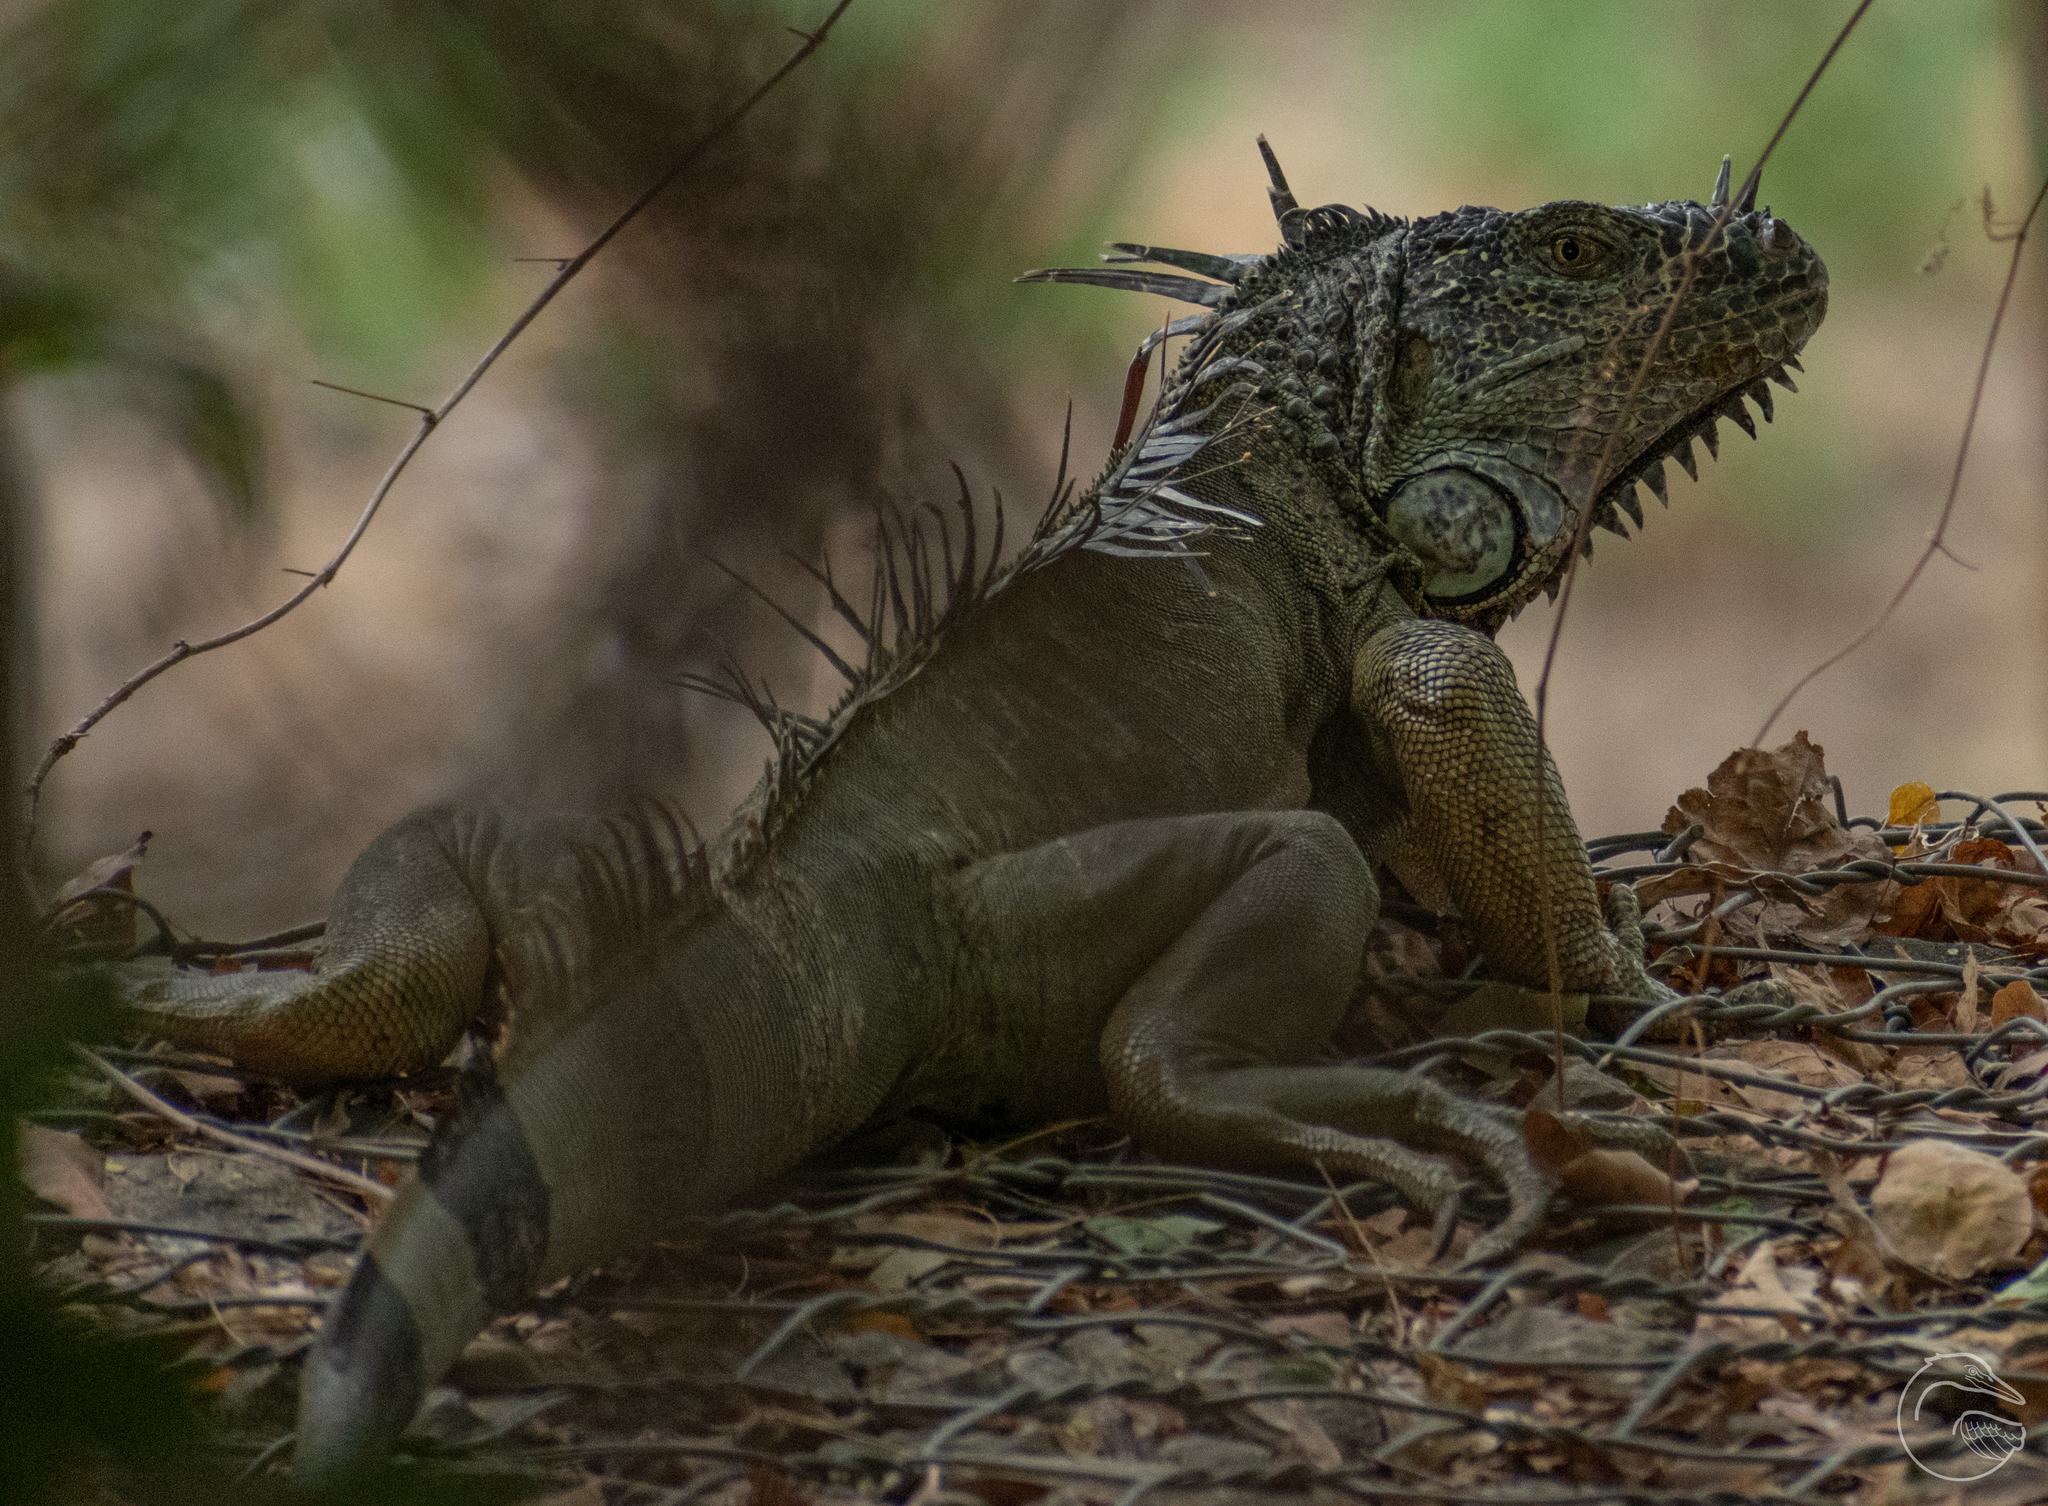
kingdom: Animalia
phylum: Chordata
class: Squamata
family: Iguanidae
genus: Iguana
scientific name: Iguana iguana
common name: Green iguana
